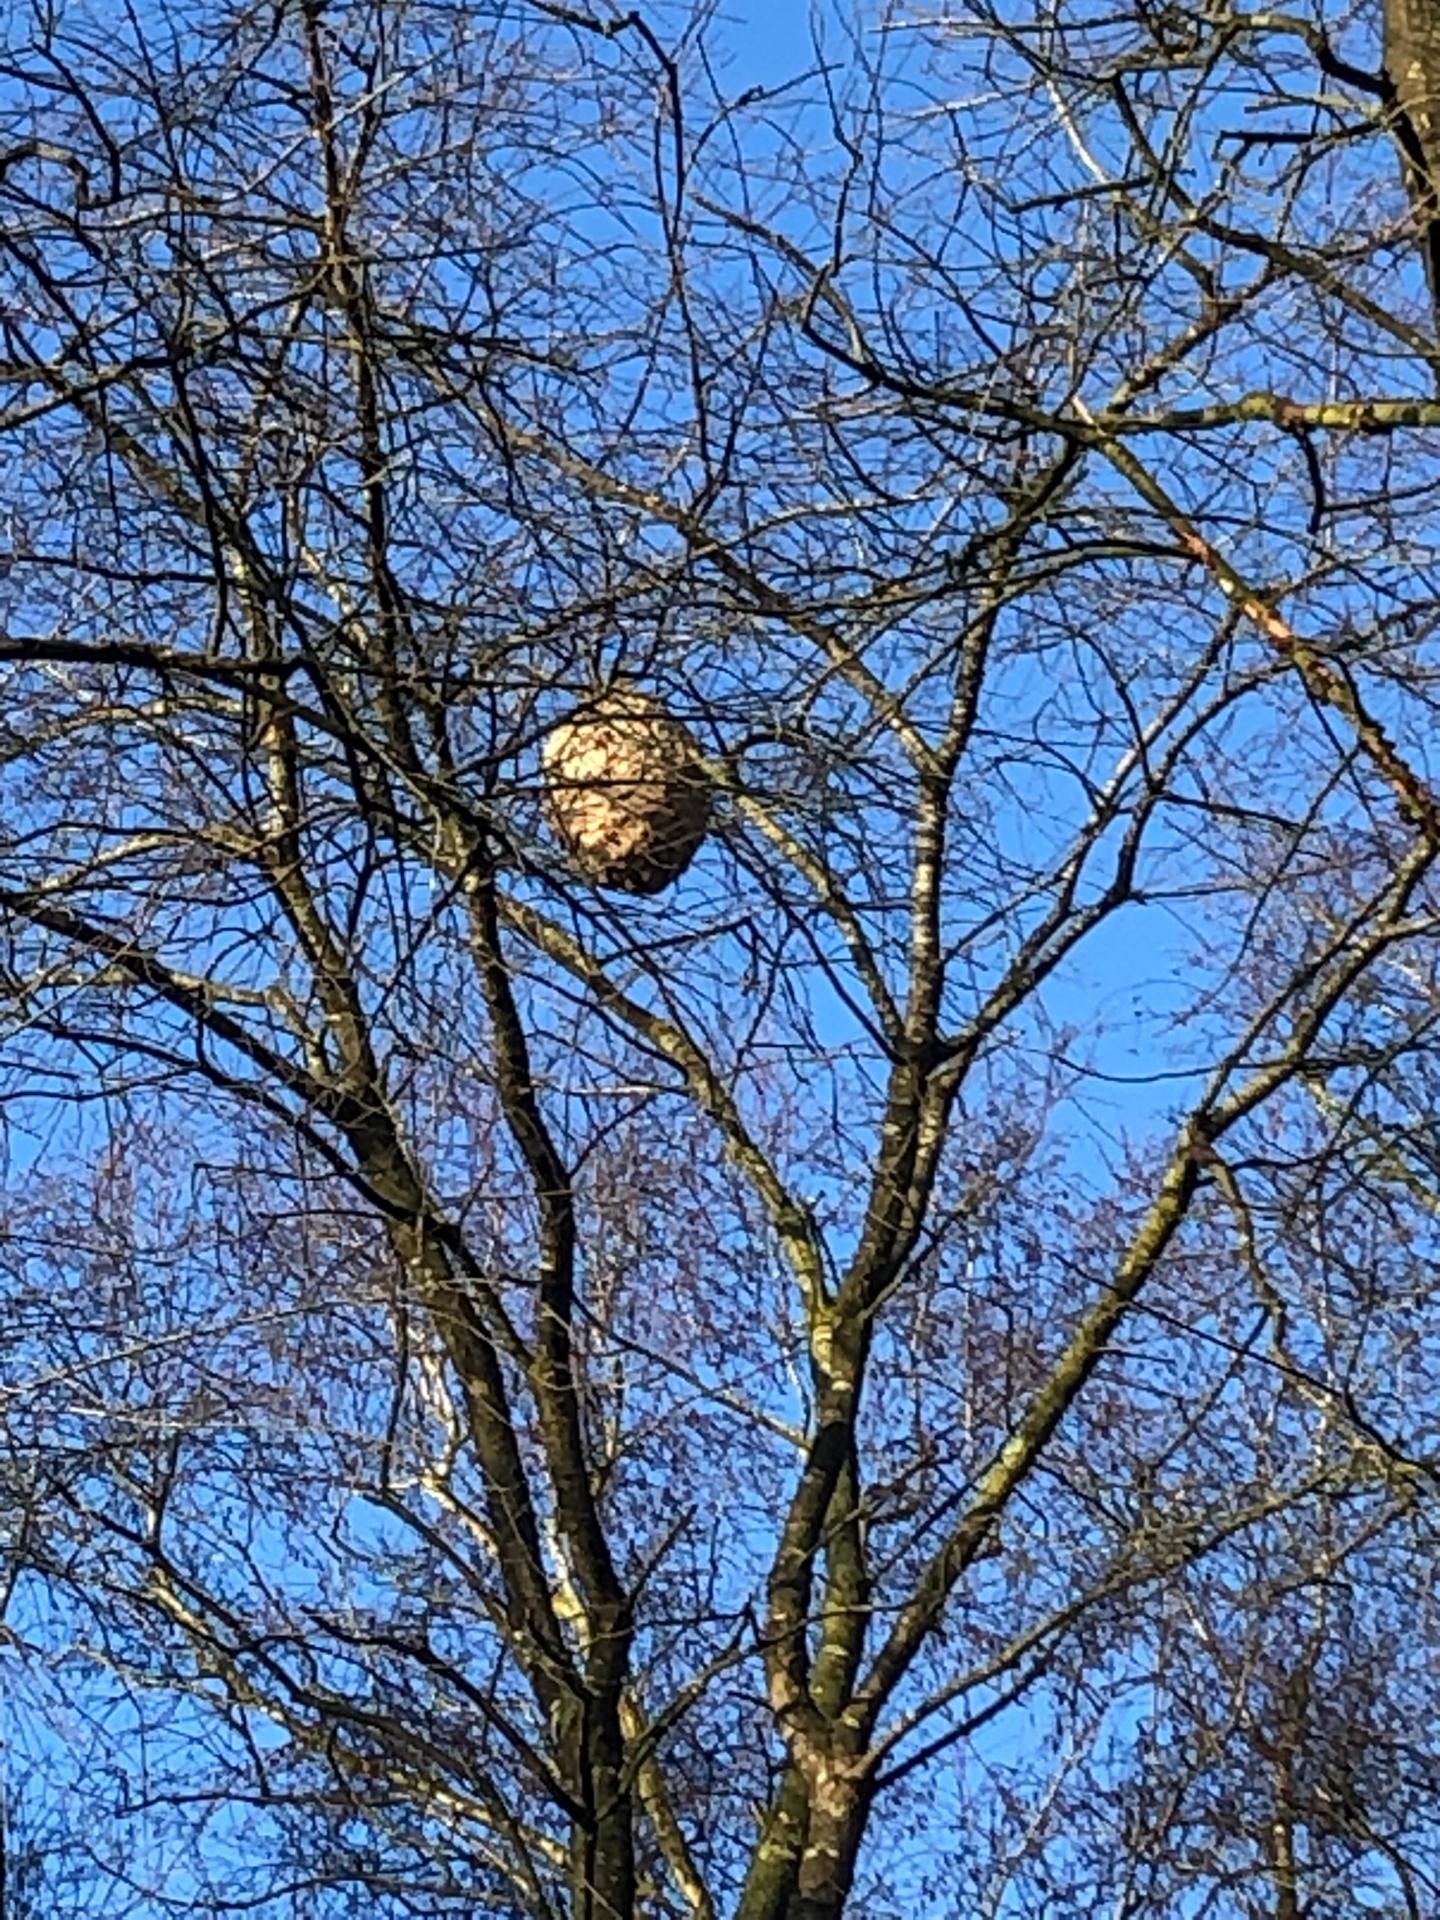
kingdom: Animalia
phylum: Arthropoda
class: Insecta
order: Hymenoptera
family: Vespidae
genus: Vespa
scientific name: Vespa velutina
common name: Asian hornet
